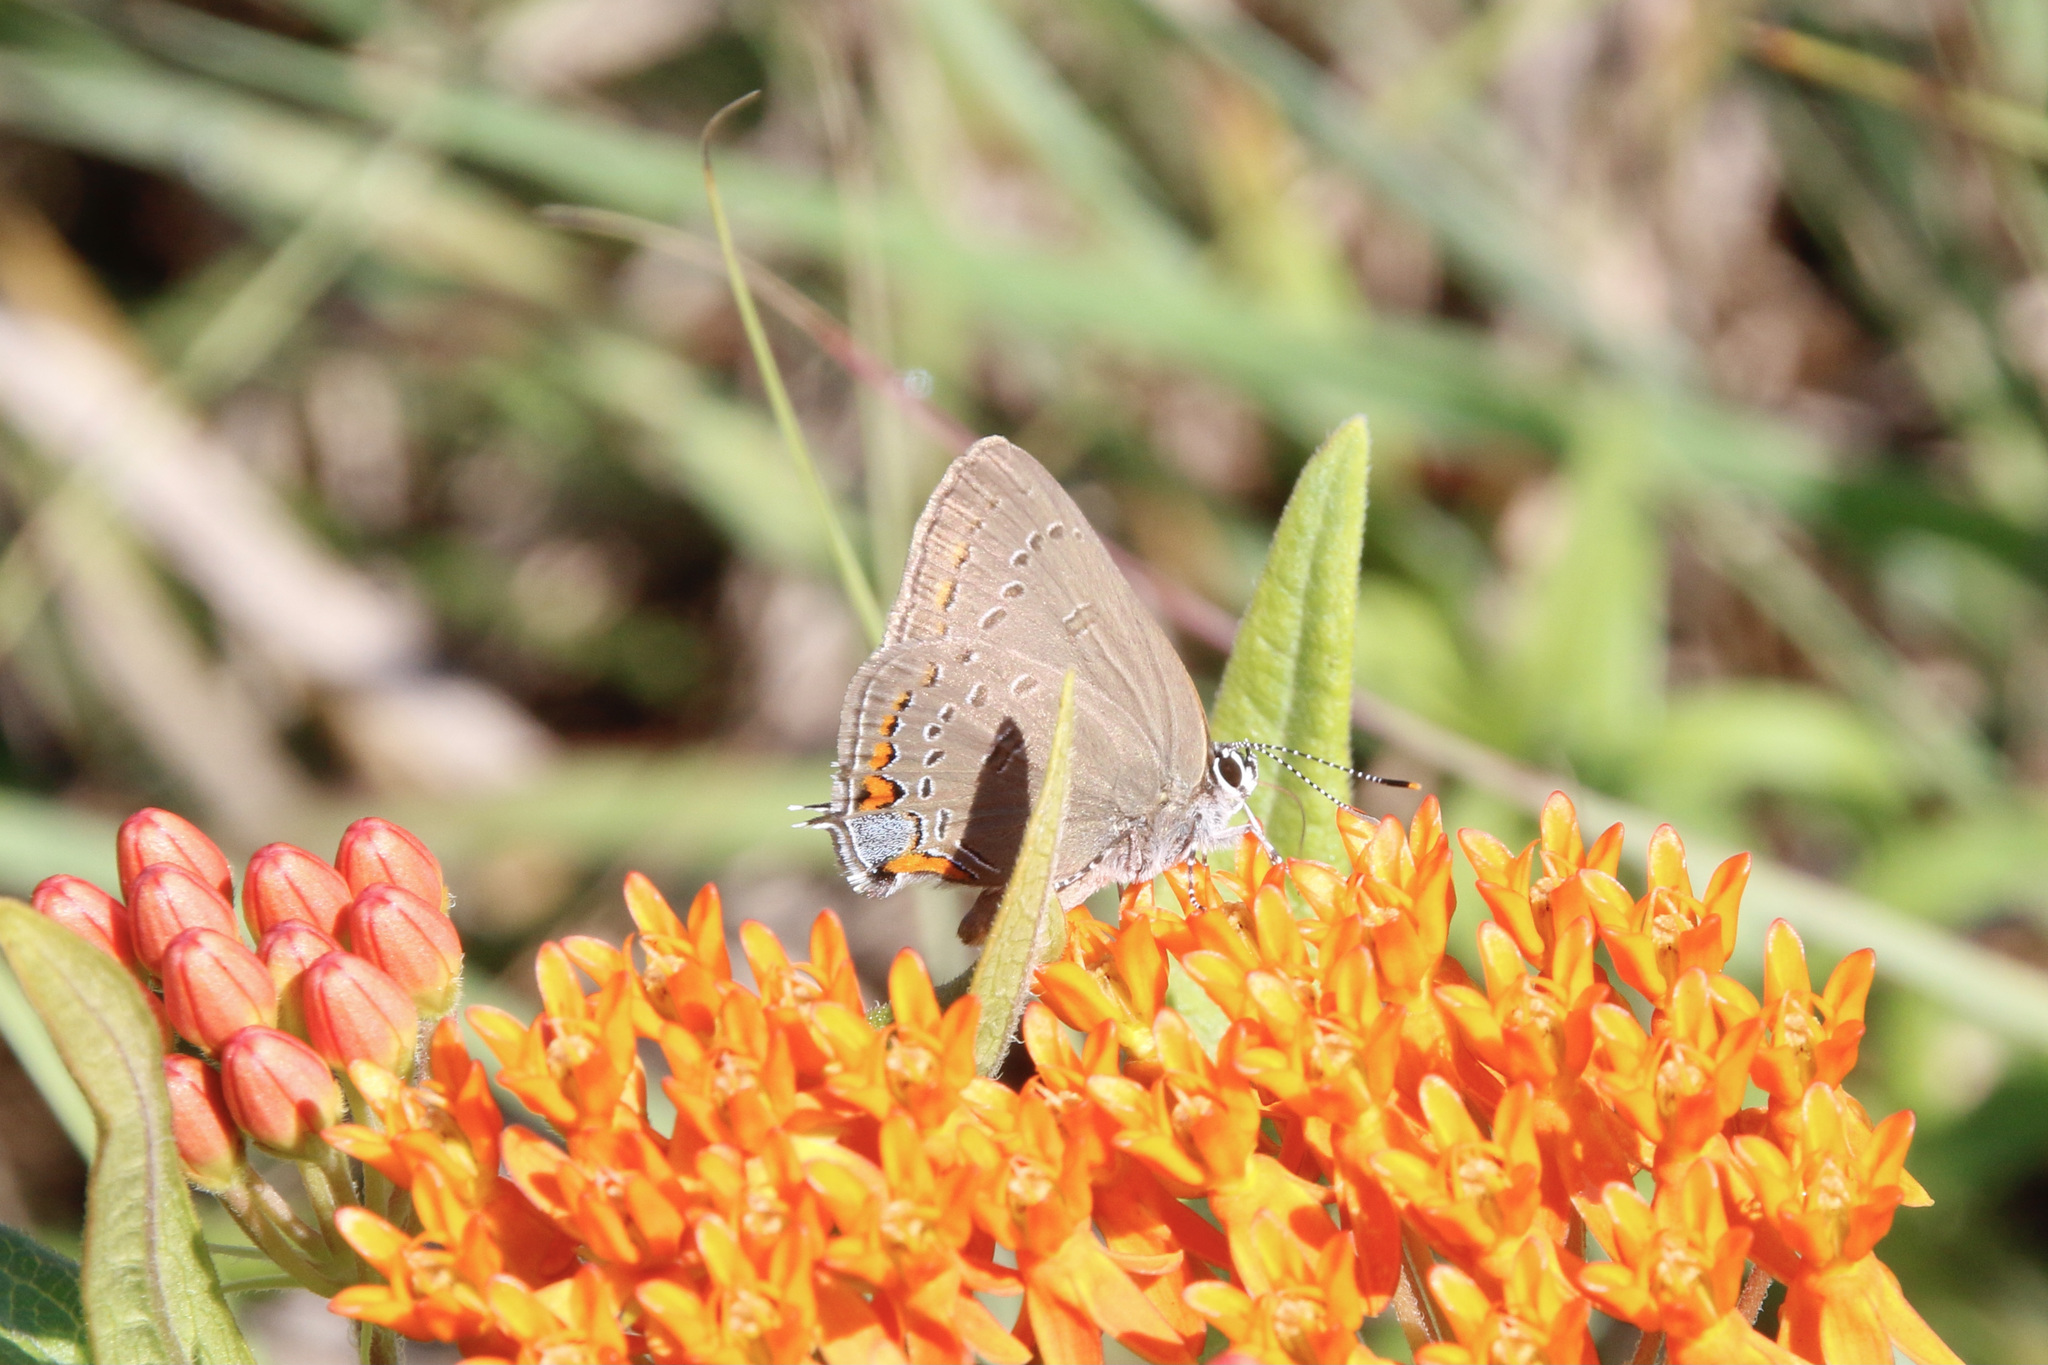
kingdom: Animalia
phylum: Arthropoda
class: Insecta
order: Lepidoptera
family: Lycaenidae
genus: Satyrium
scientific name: Satyrium edwardsii
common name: Edwards' hairstreak
